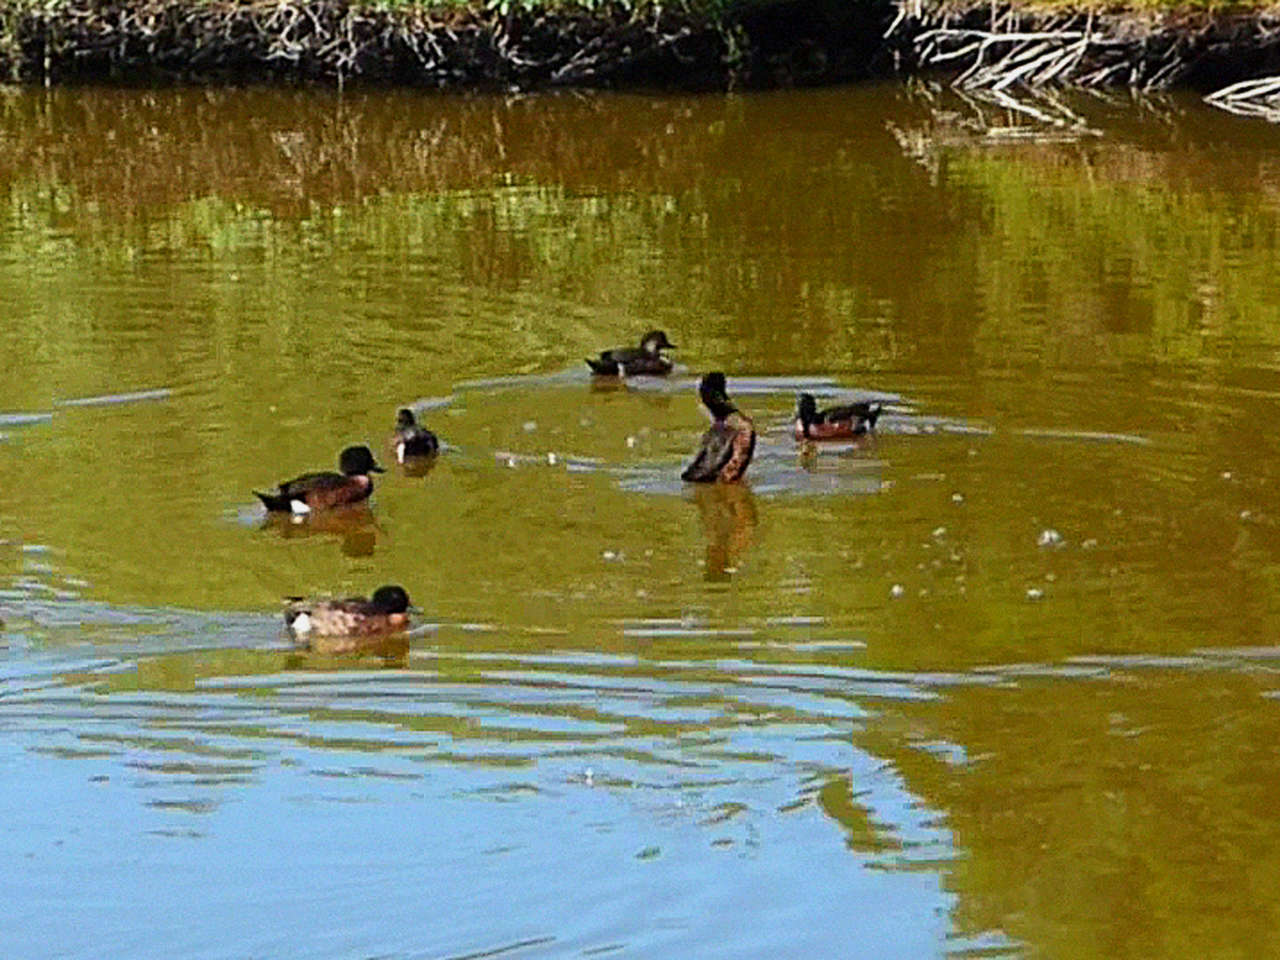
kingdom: Animalia
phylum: Chordata
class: Aves
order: Anseriformes
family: Anatidae
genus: Anas
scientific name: Anas castanea
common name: Chestnut teal
